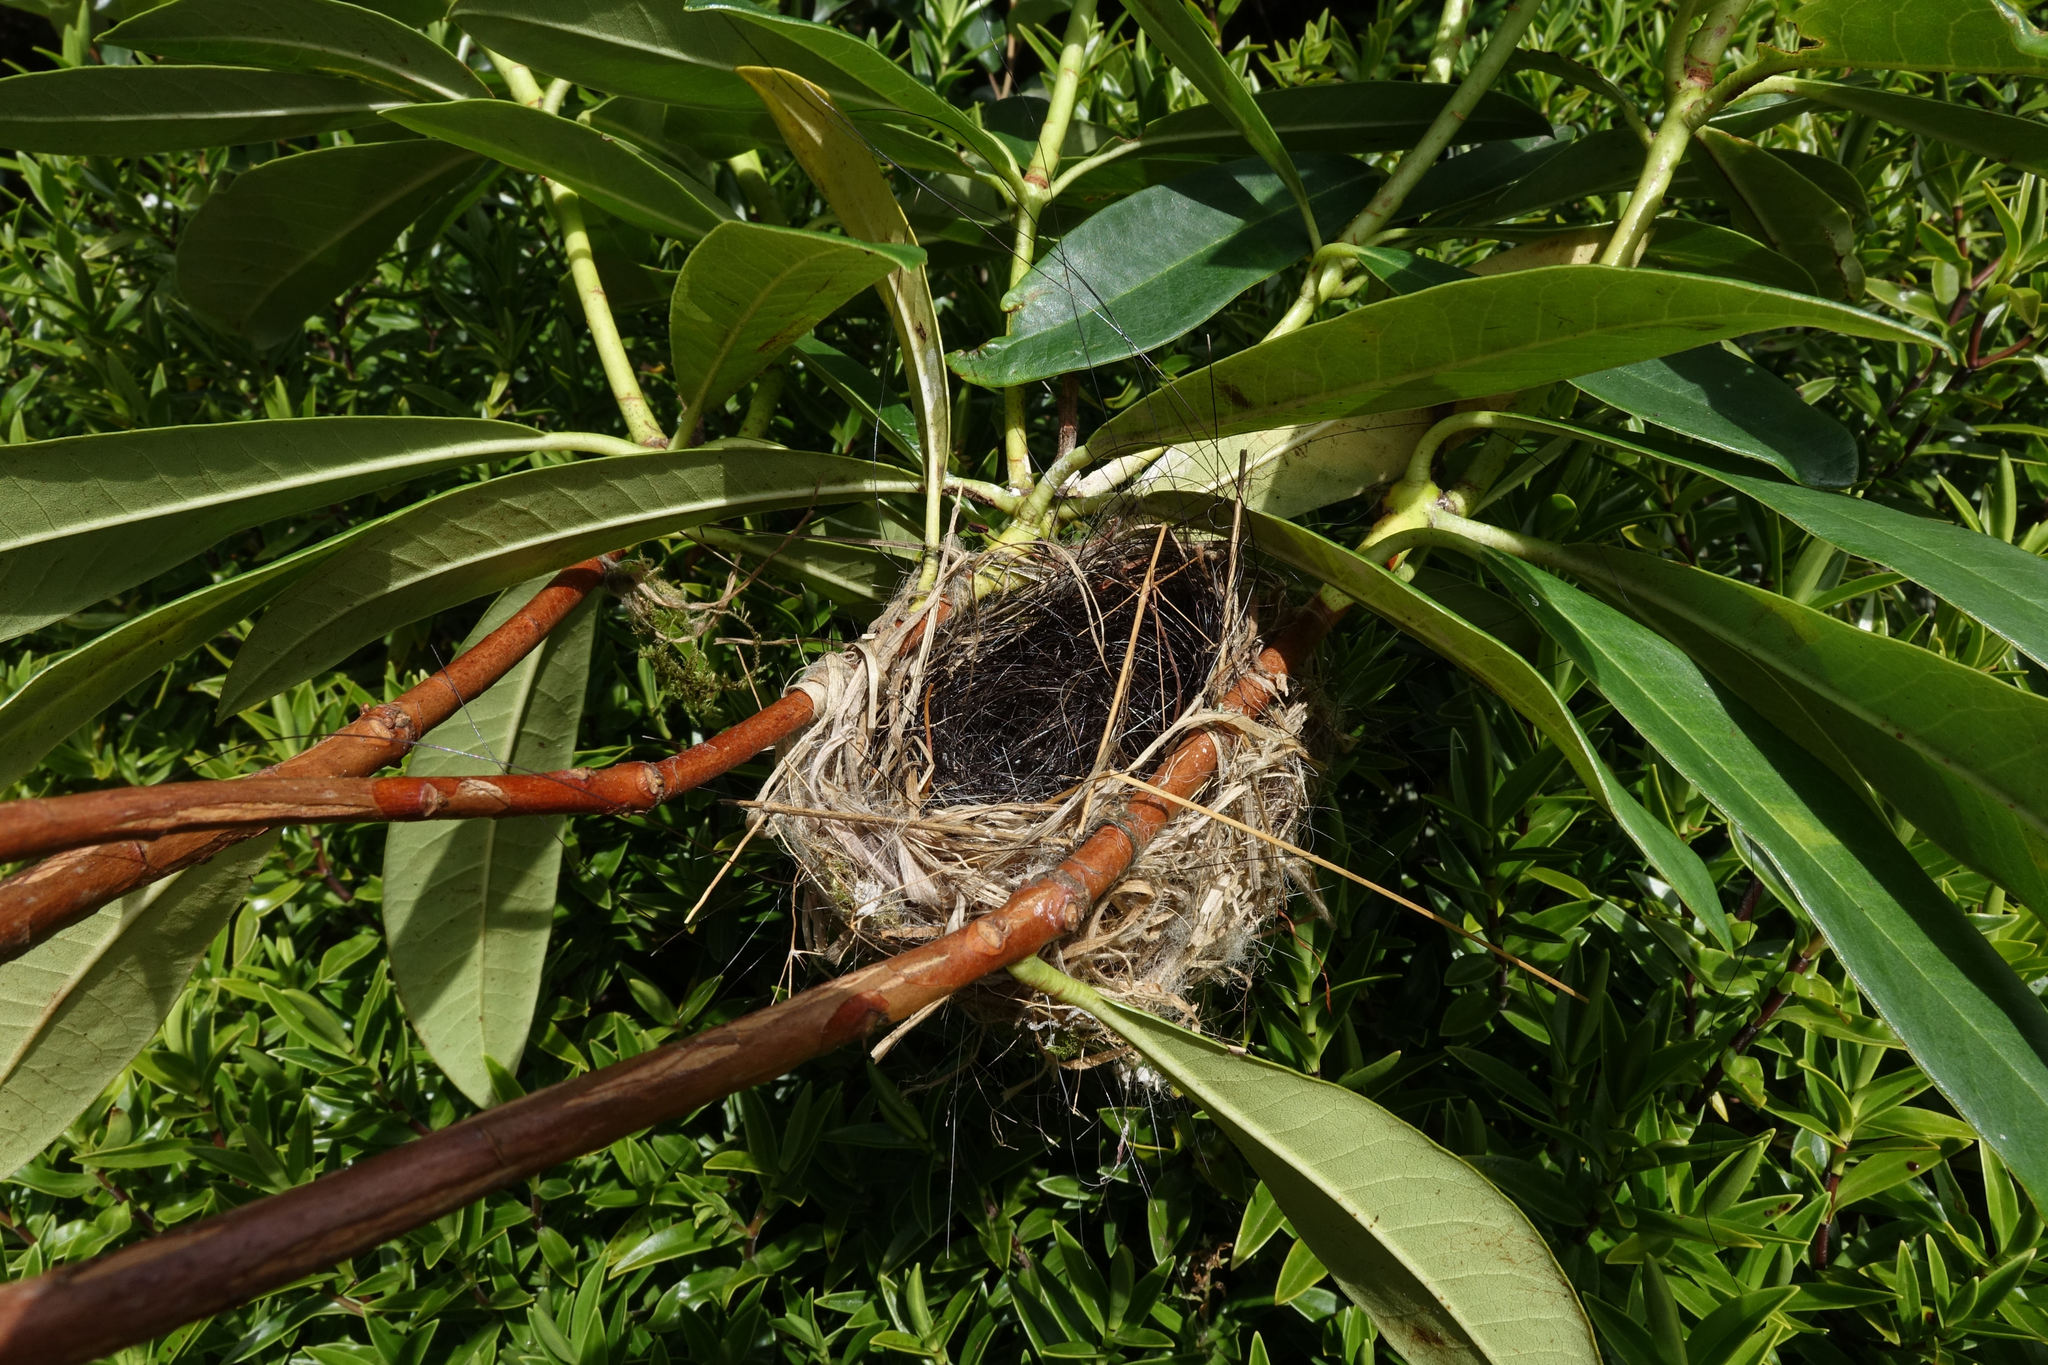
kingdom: Animalia
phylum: Chordata
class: Aves
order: Passeriformes
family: Zosteropidae
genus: Zosterops
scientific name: Zosterops lateralis
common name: Silvereye
